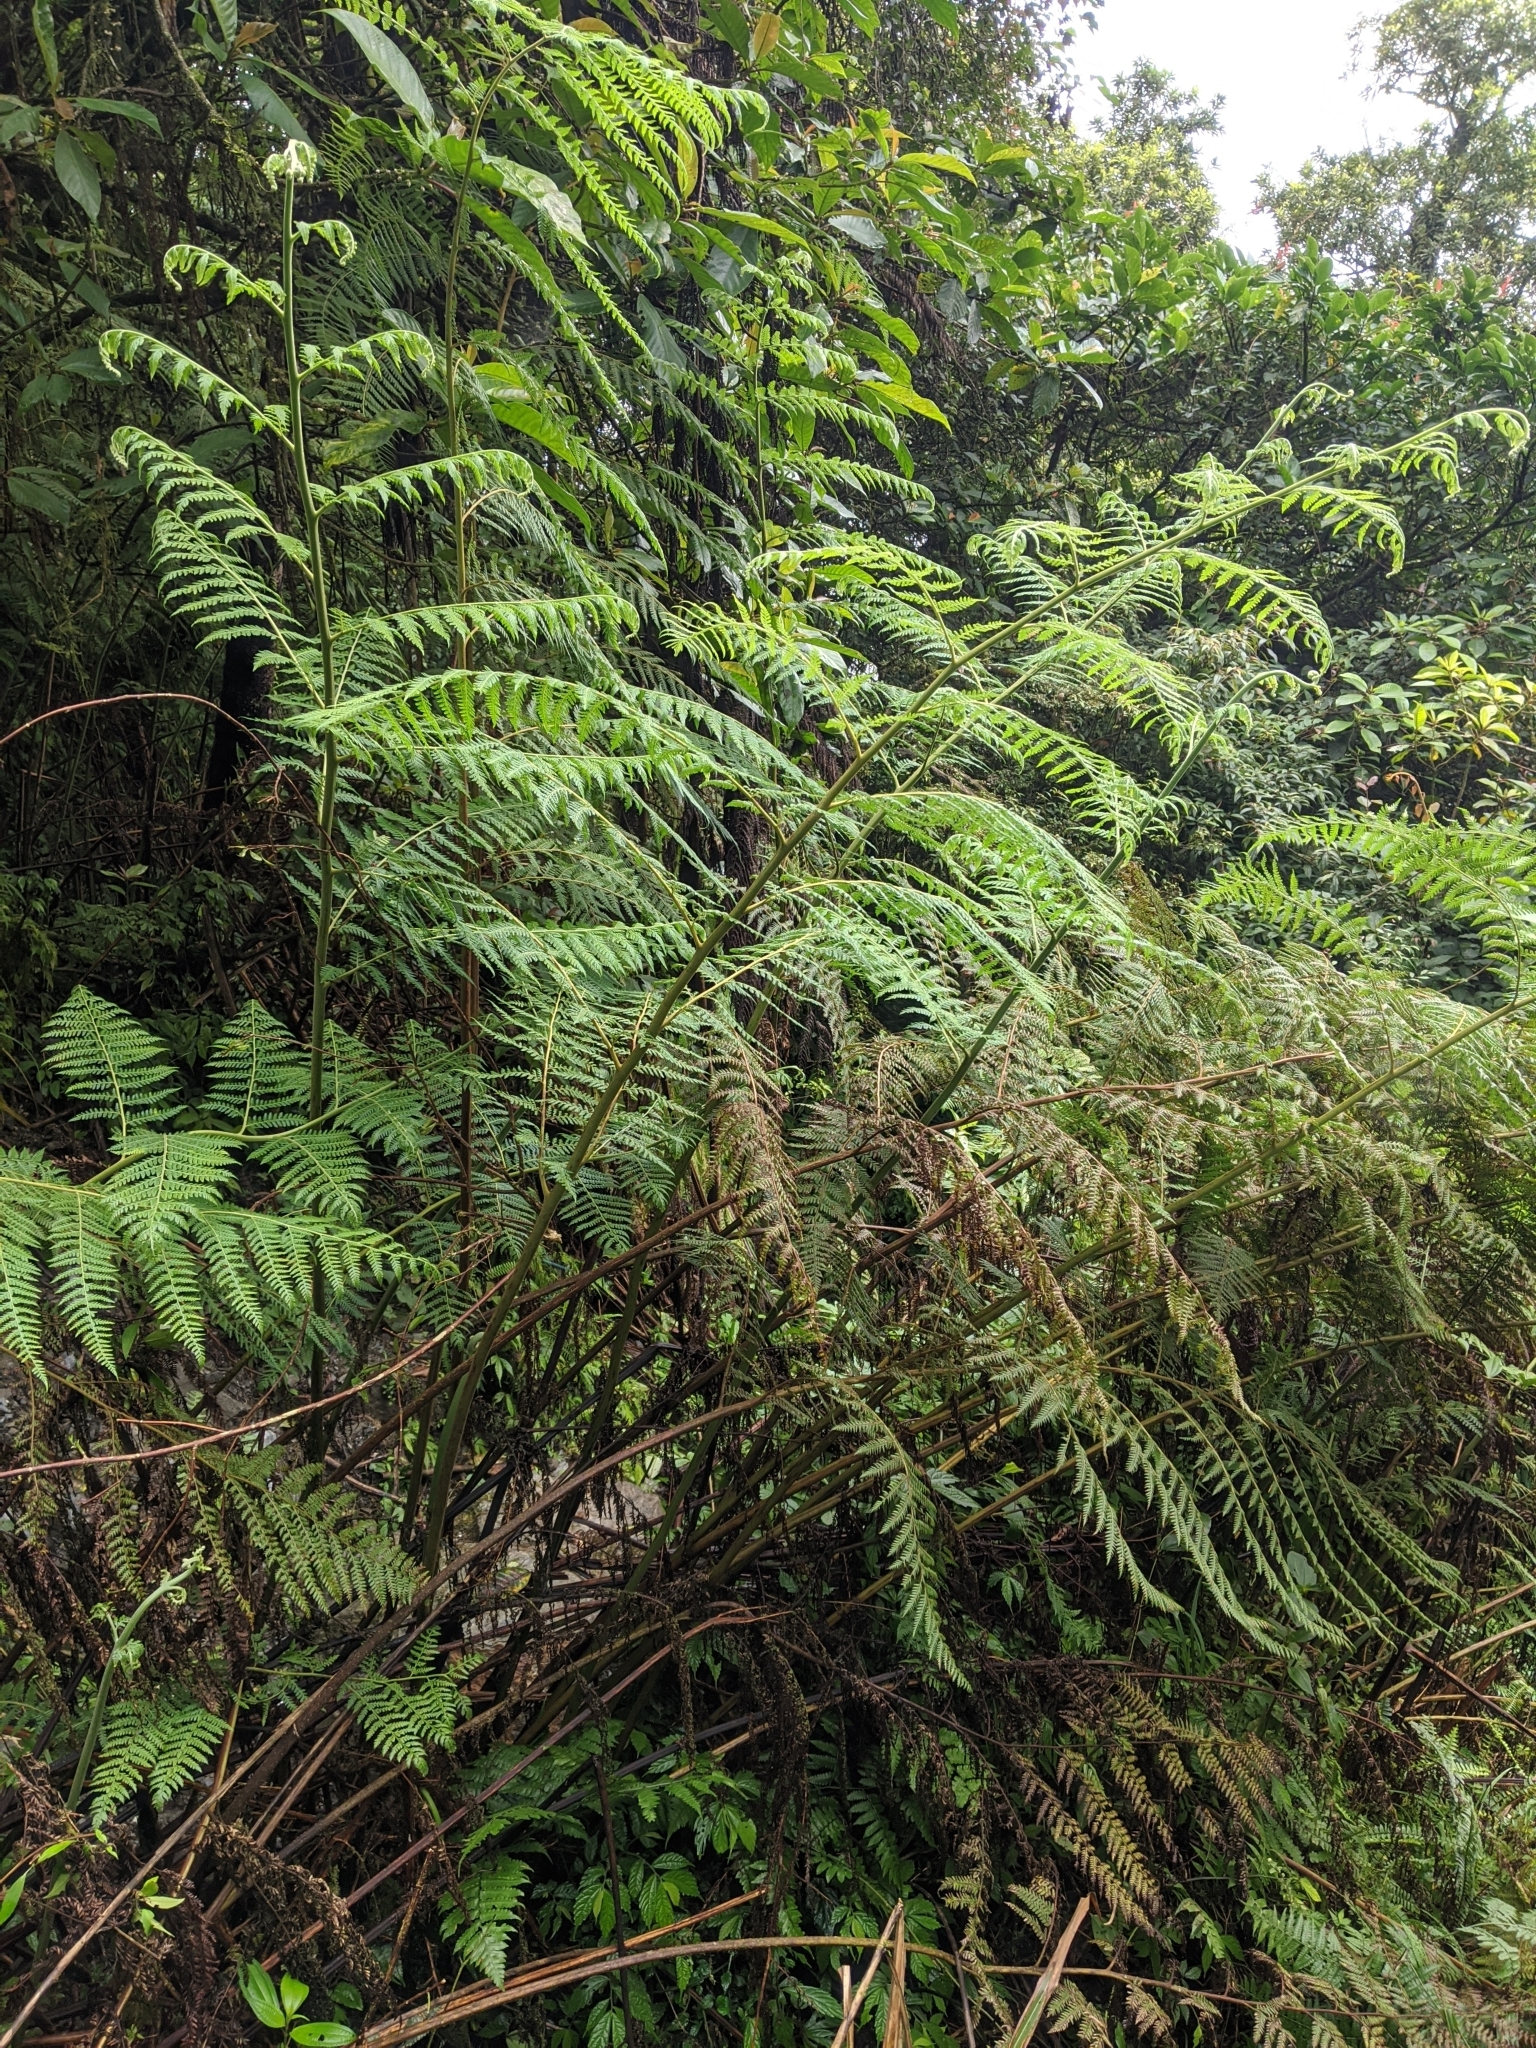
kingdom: Plantae
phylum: Tracheophyta
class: Polypodiopsida
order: Polypodiales
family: Dennstaedtiaceae
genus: Microlepia
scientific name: Microlepia smithii
